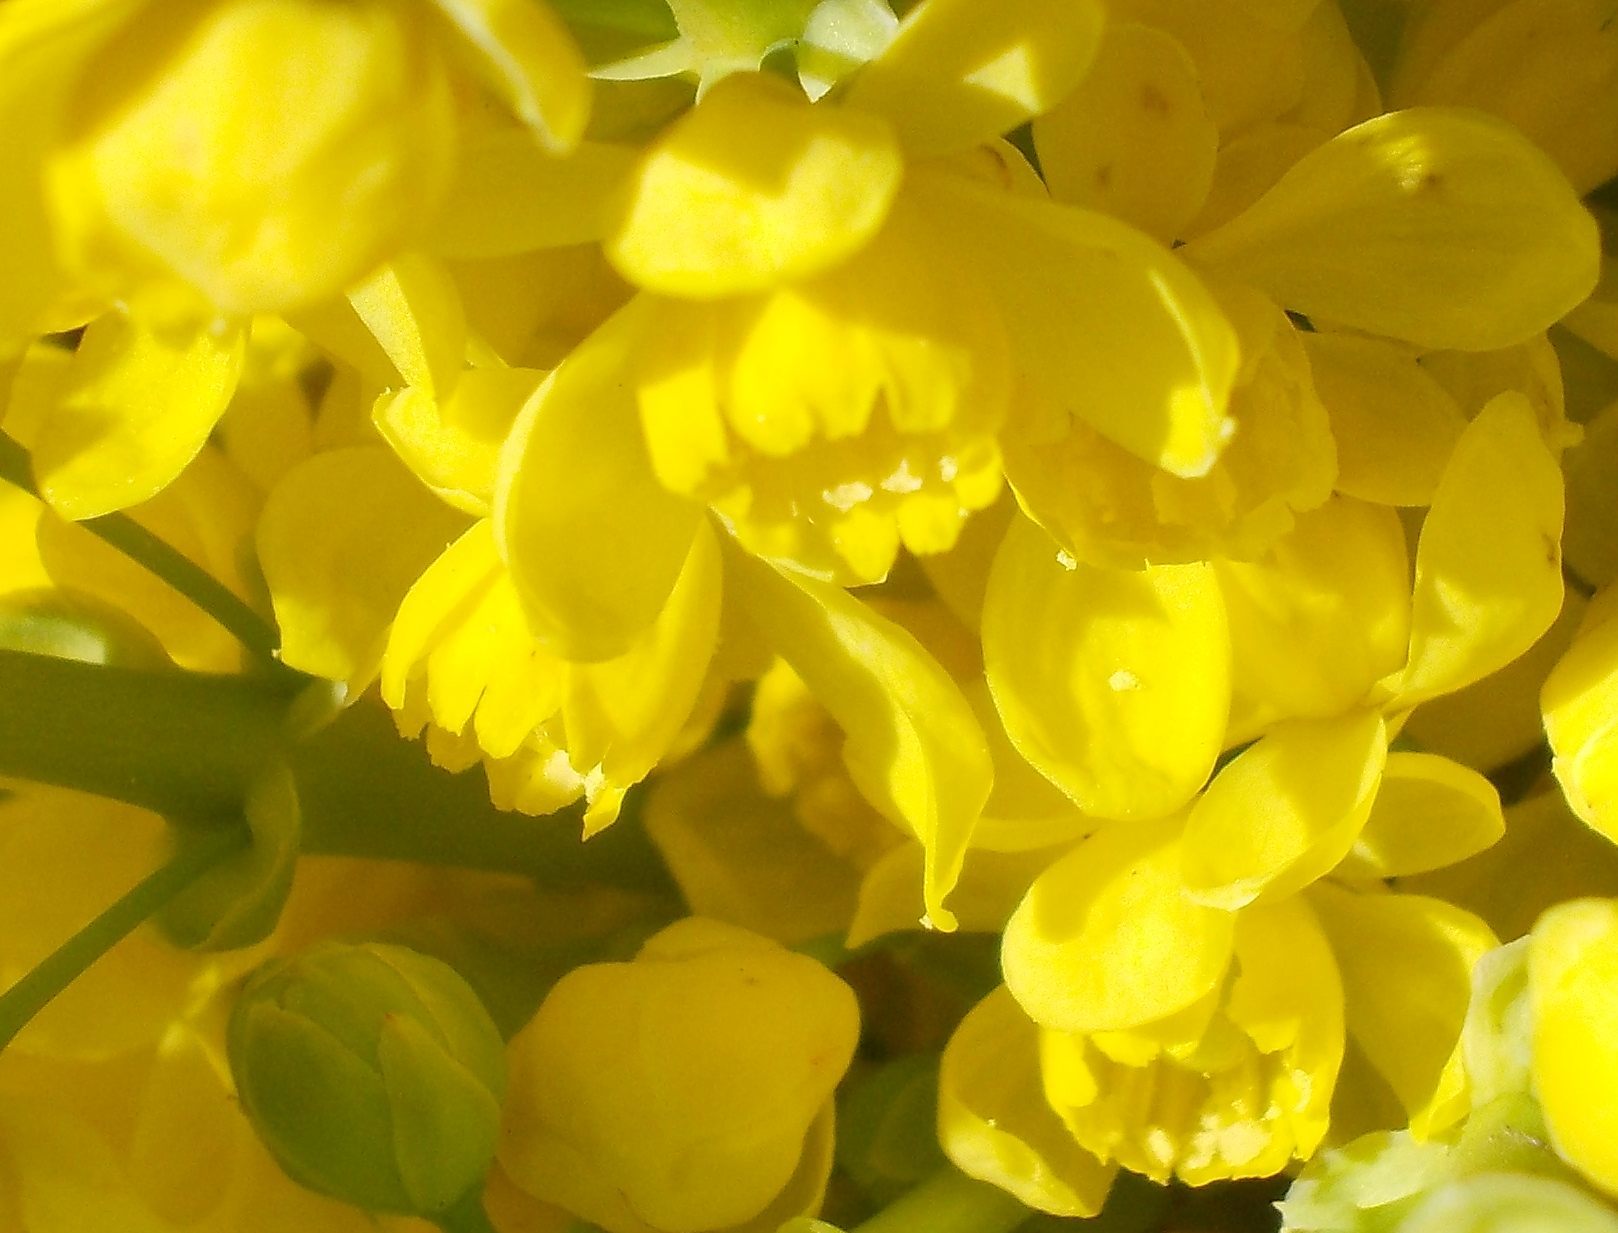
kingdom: Plantae
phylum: Tracheophyta
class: Magnoliopsida
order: Ranunculales
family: Berberidaceae
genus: Mahonia
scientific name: Mahonia aquifolium
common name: Oregon-grape
